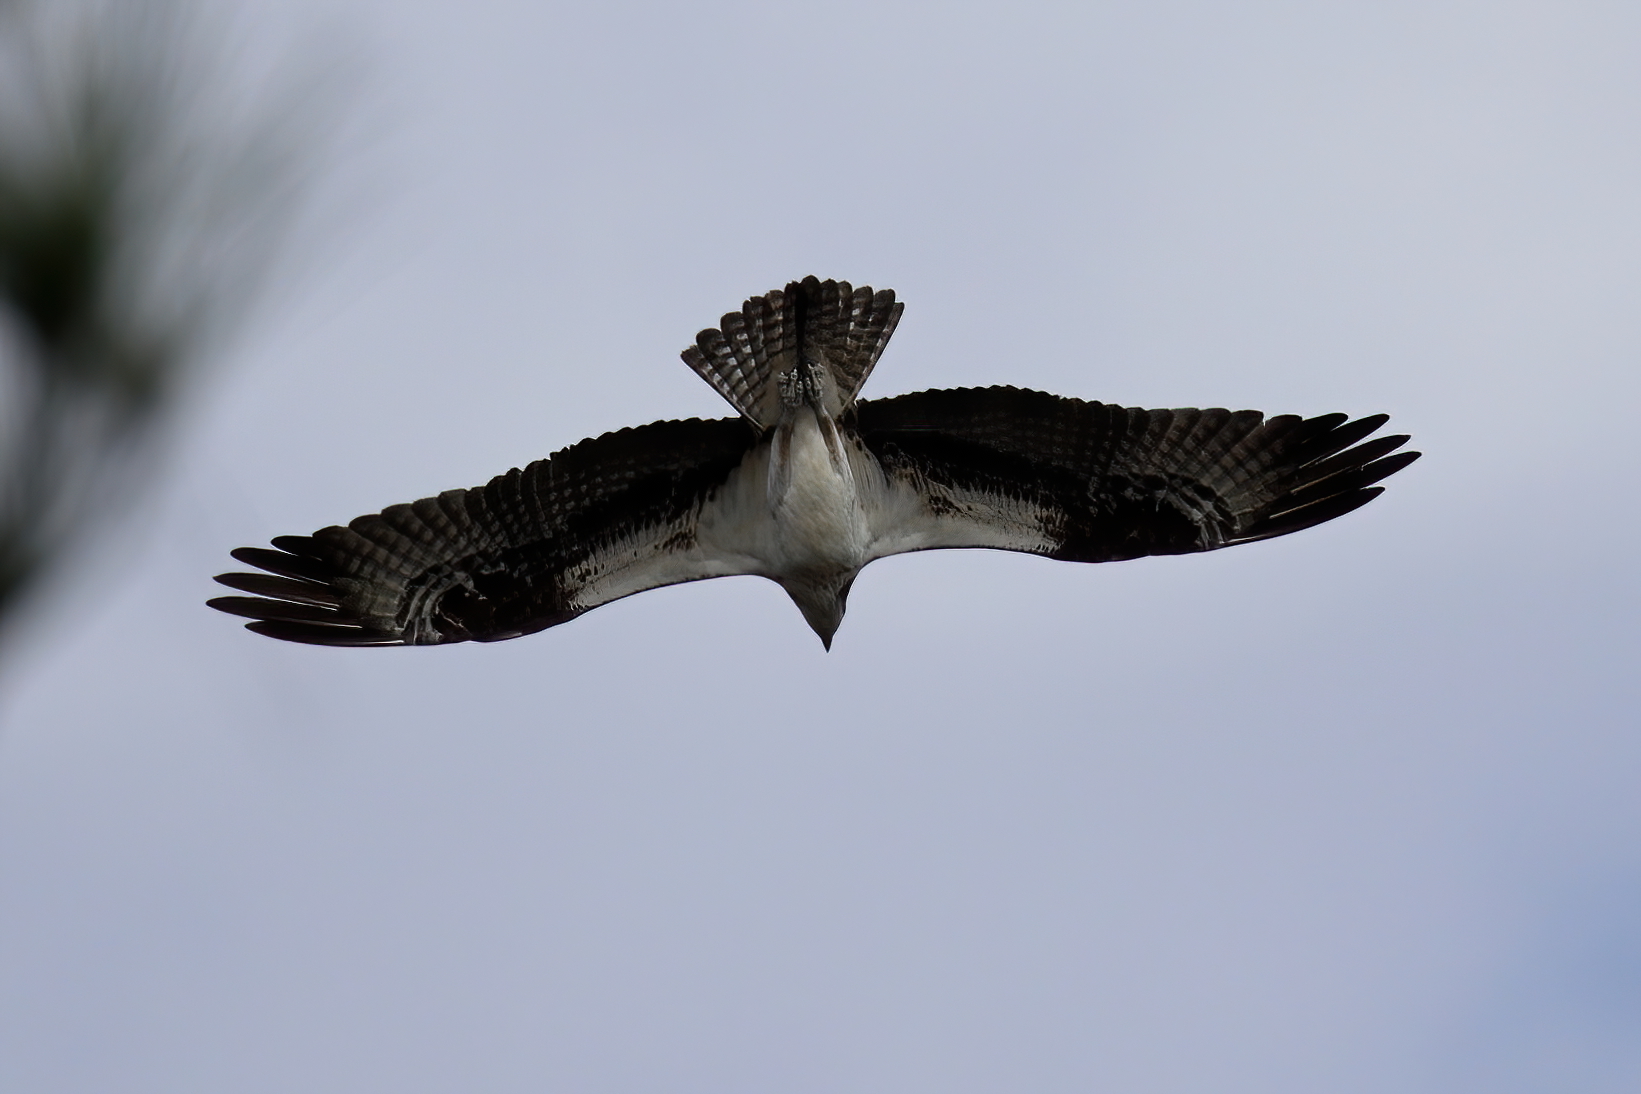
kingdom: Animalia
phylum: Chordata
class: Aves
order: Accipitriformes
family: Pandionidae
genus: Pandion
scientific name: Pandion haliaetus
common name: Osprey
